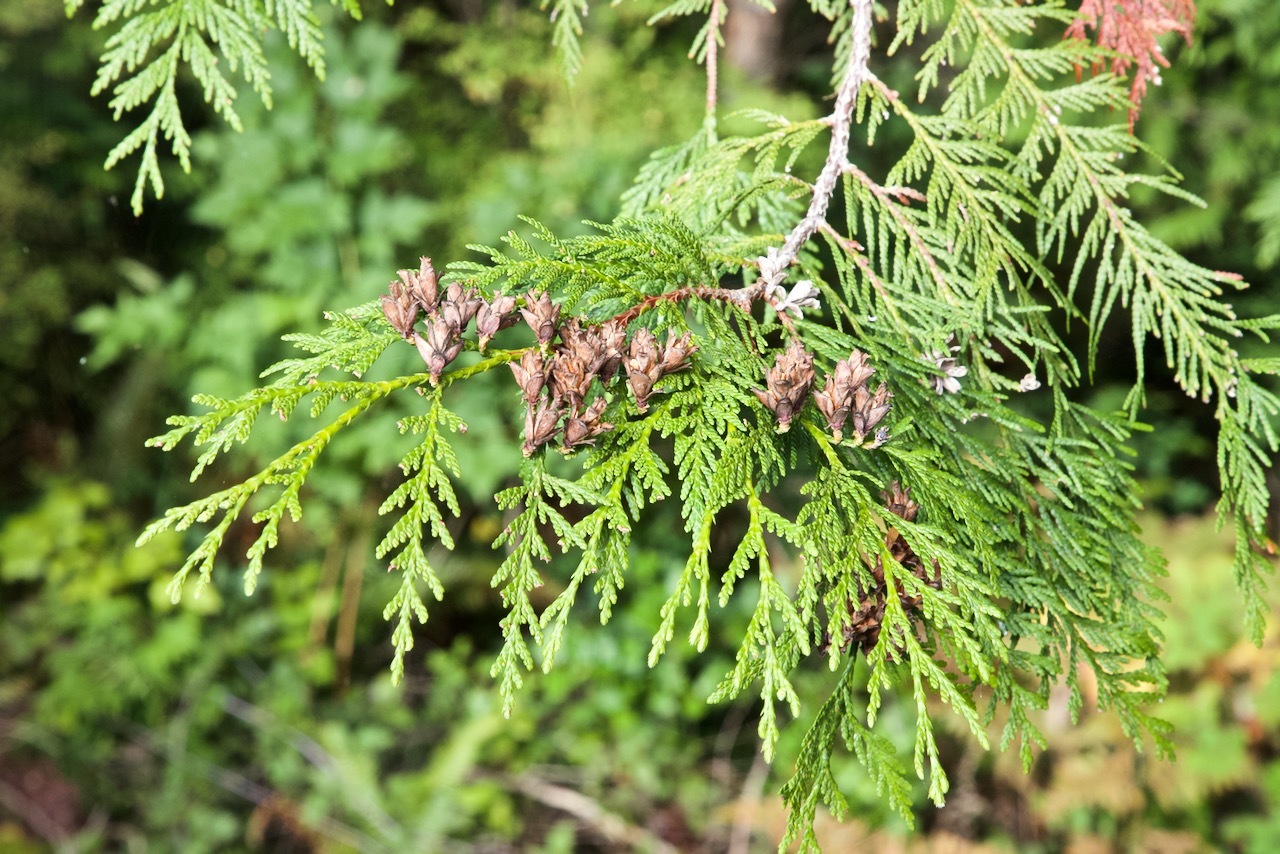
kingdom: Plantae
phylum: Tracheophyta
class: Pinopsida
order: Pinales
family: Cupressaceae
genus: Thuja
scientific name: Thuja plicata
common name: Western red-cedar
